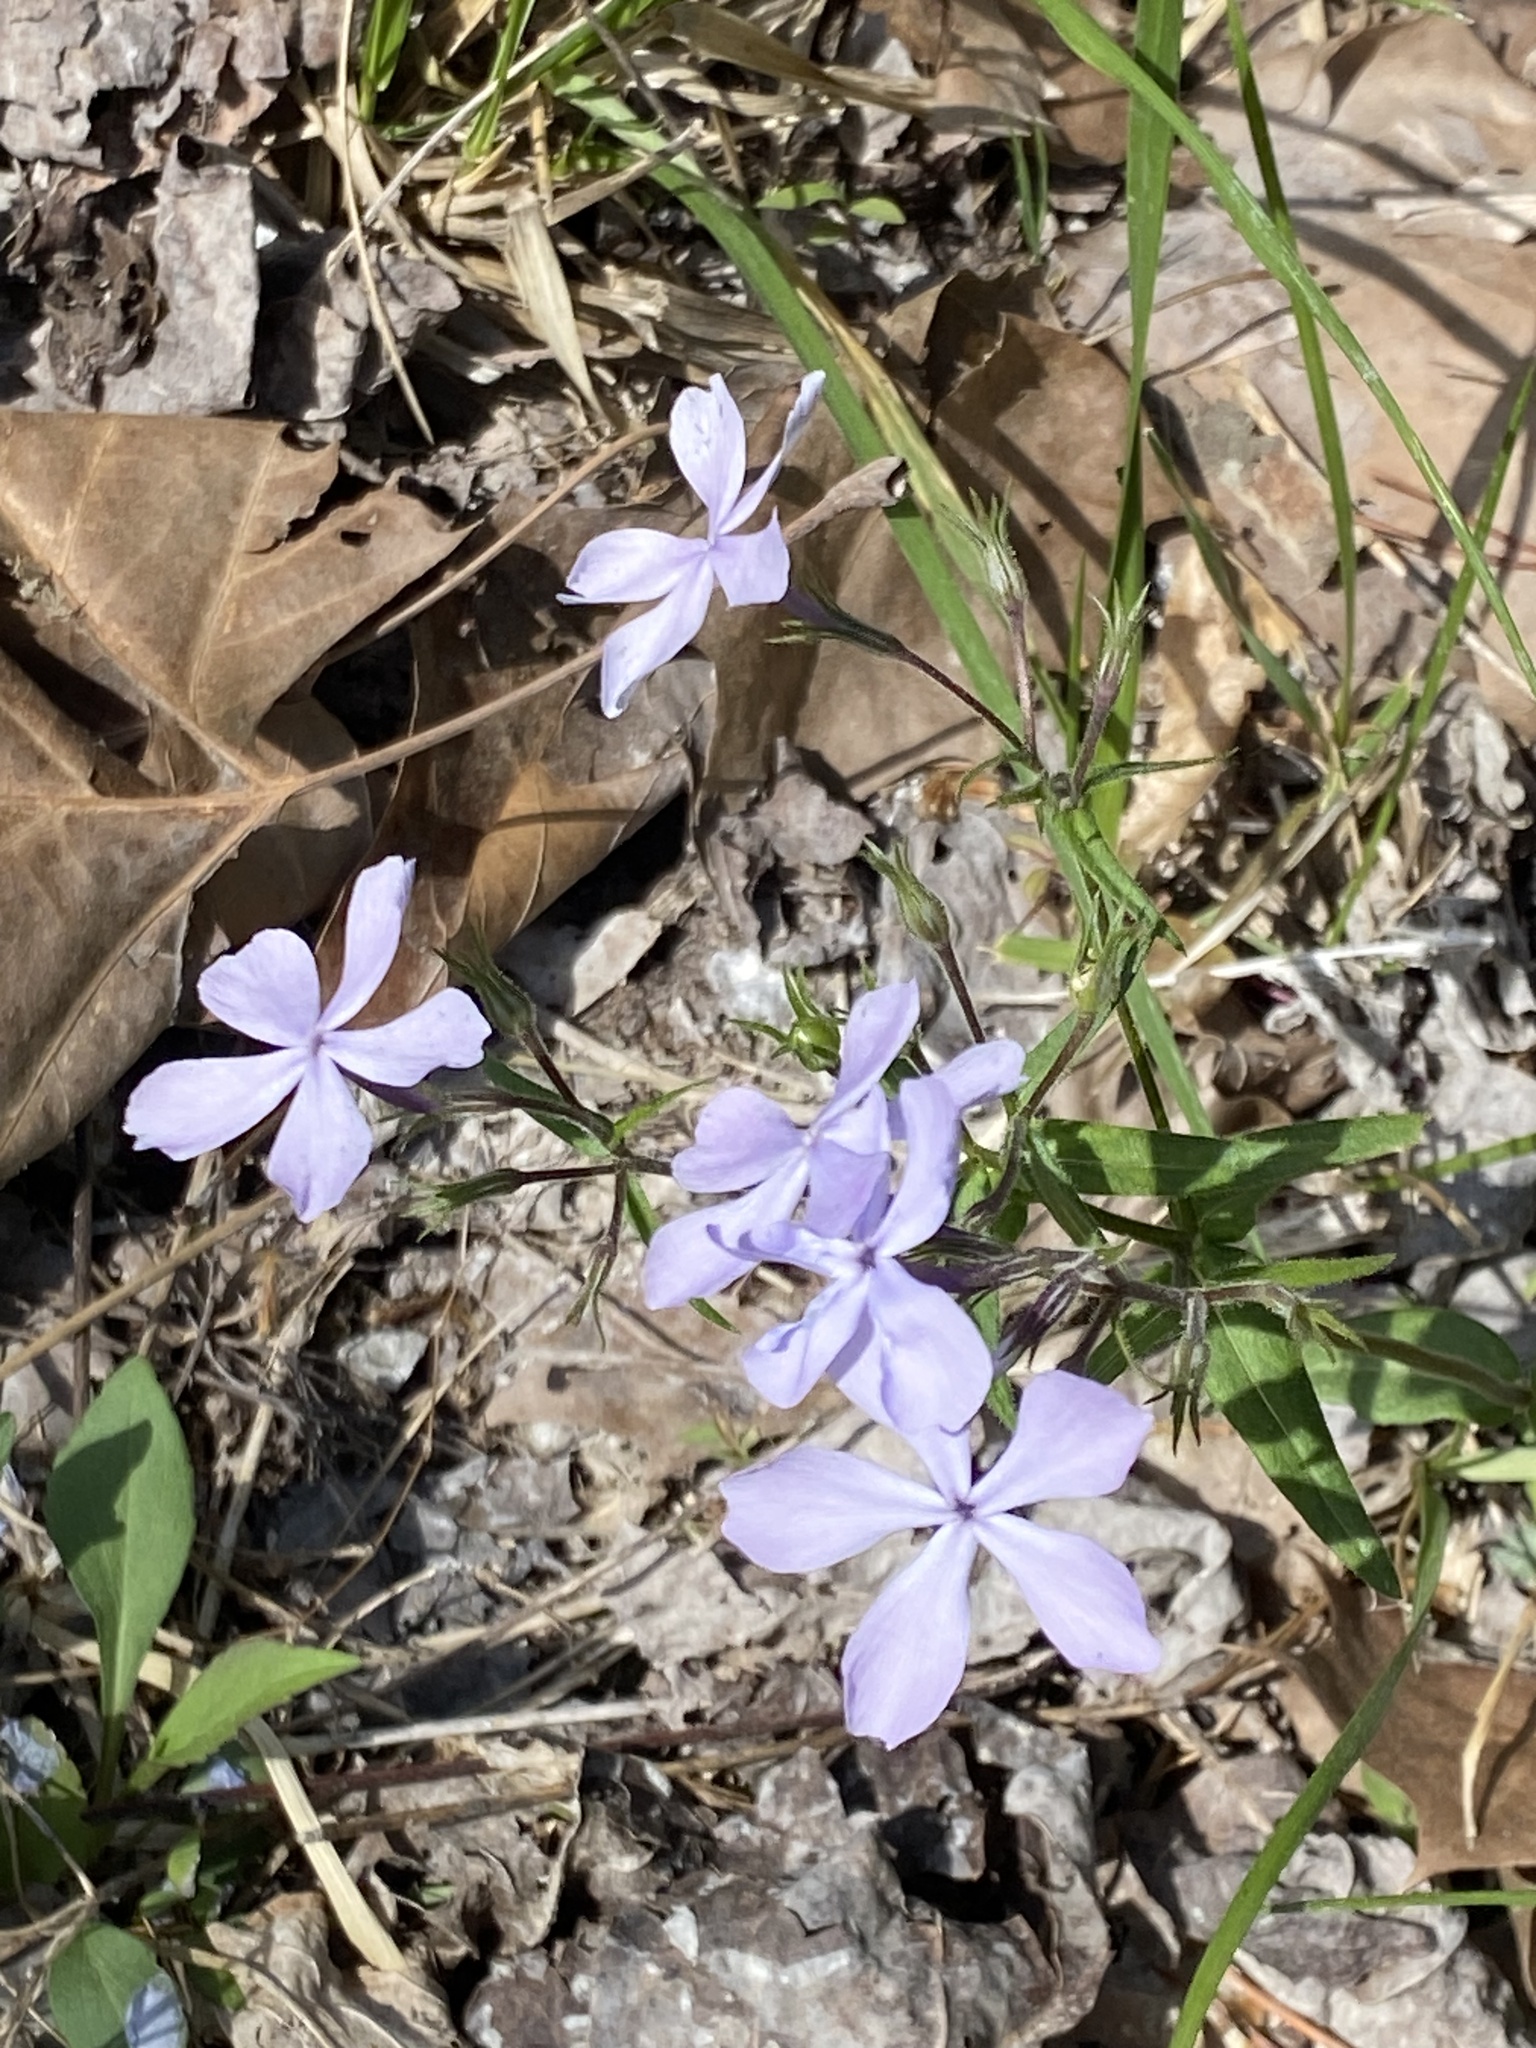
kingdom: Plantae
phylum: Tracheophyta
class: Magnoliopsida
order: Ericales
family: Polemoniaceae
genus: Phlox
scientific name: Phlox divaricata
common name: Blue phlox
